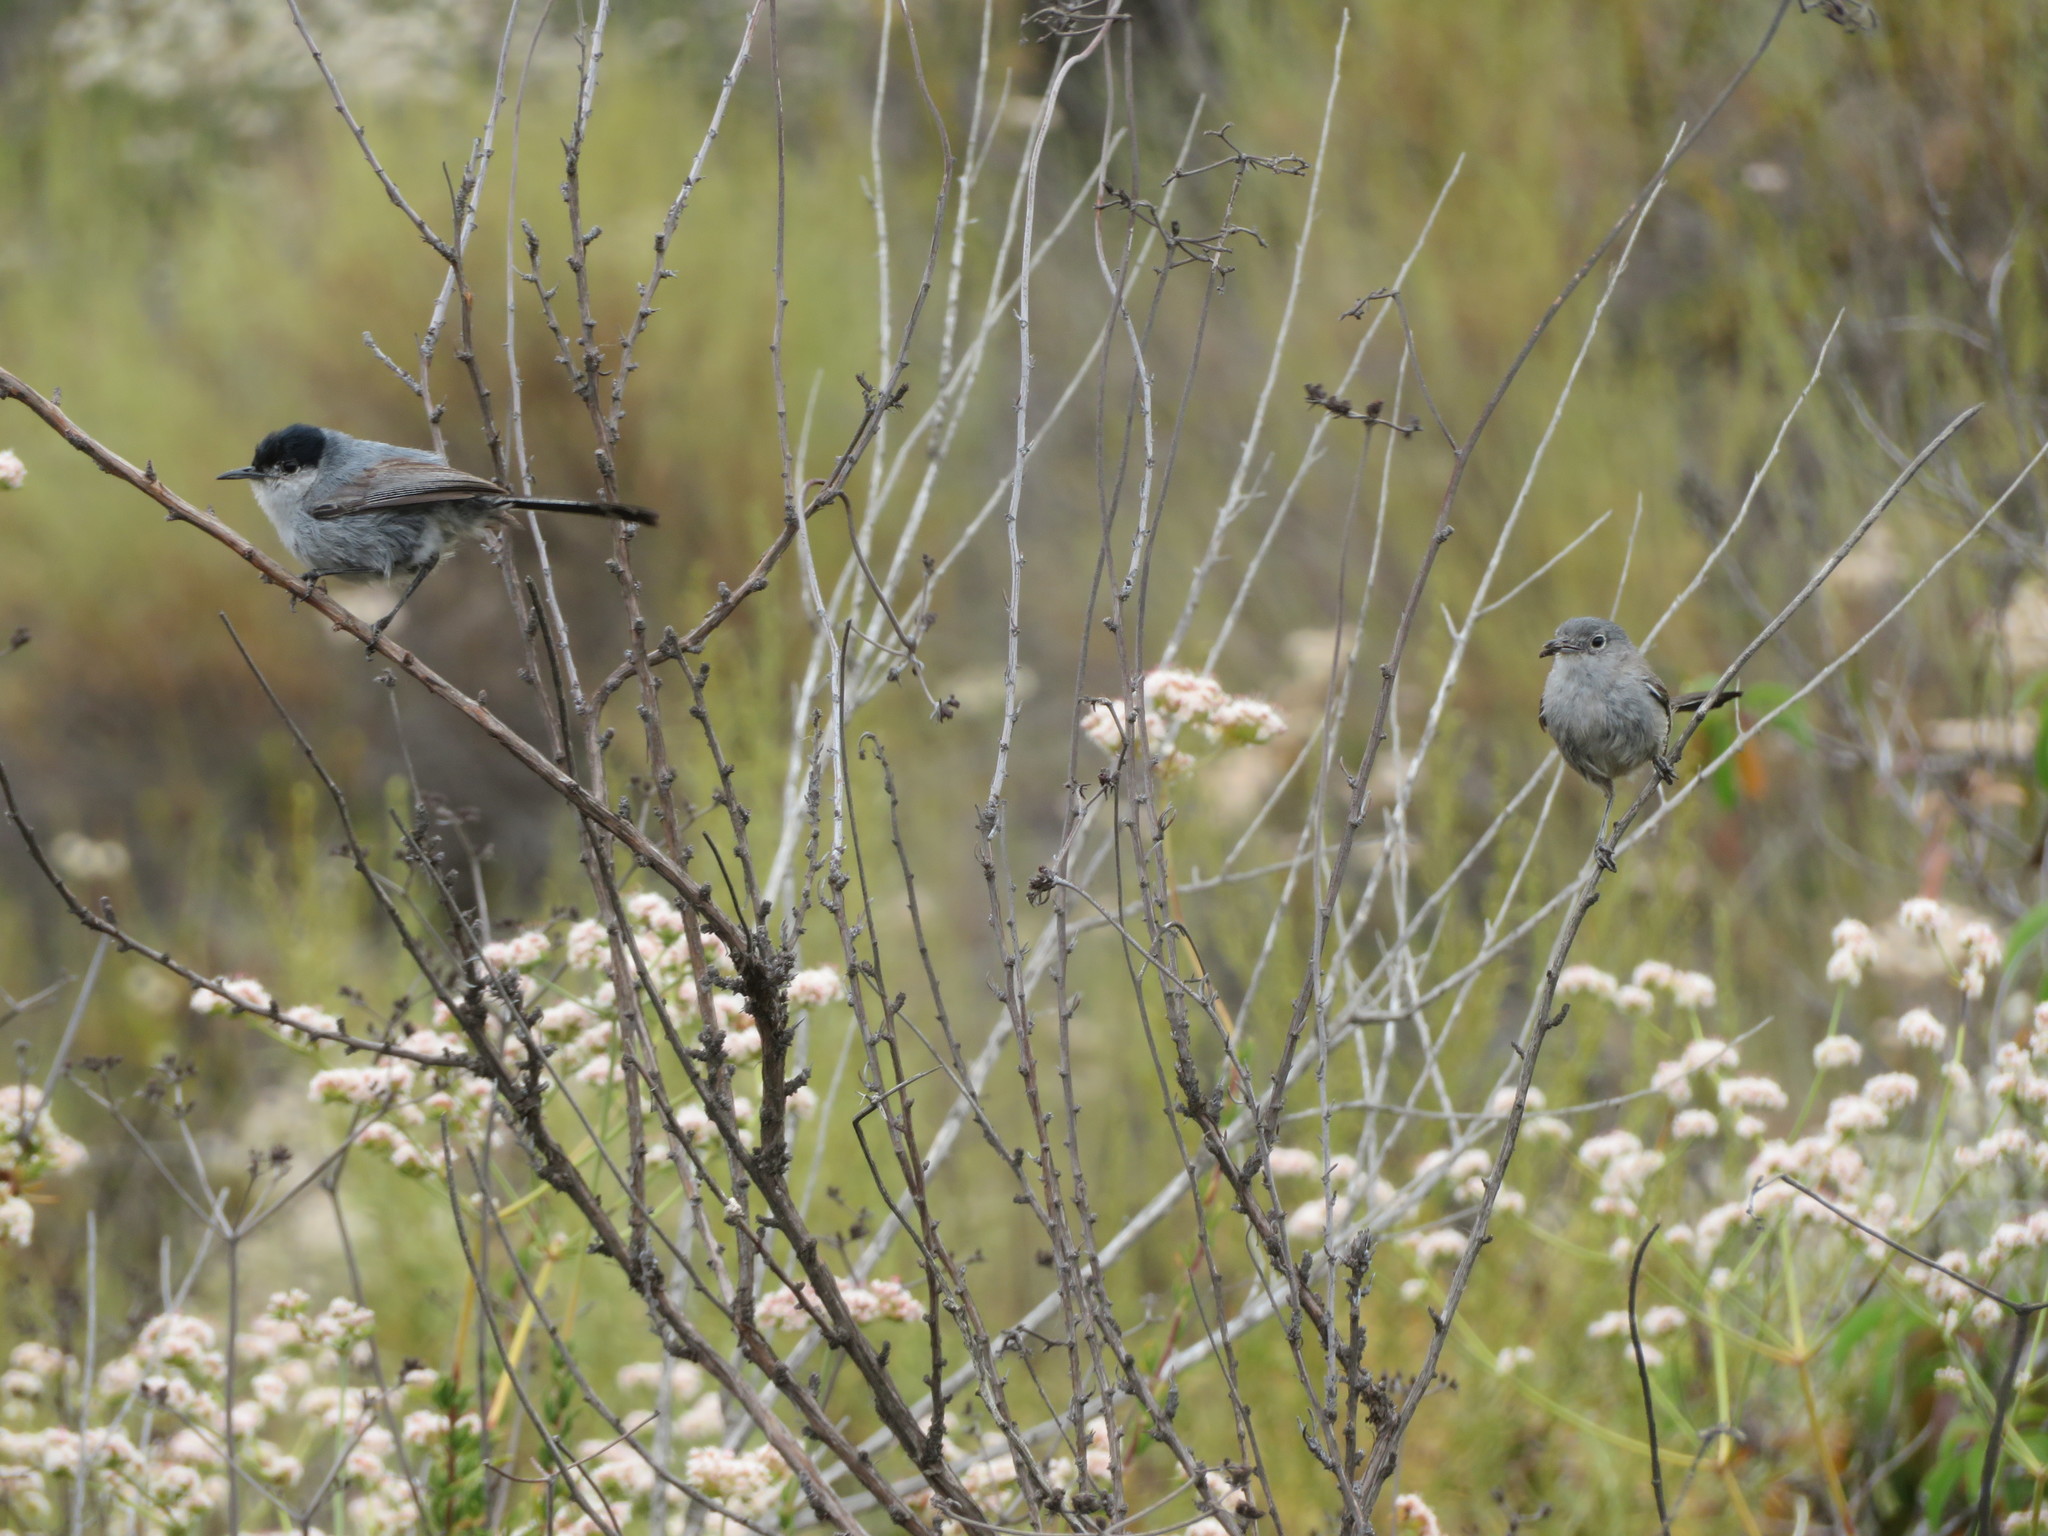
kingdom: Animalia
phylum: Chordata
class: Aves
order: Passeriformes
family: Polioptilidae
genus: Polioptila
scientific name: Polioptila californica
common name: California gnatcatcher
